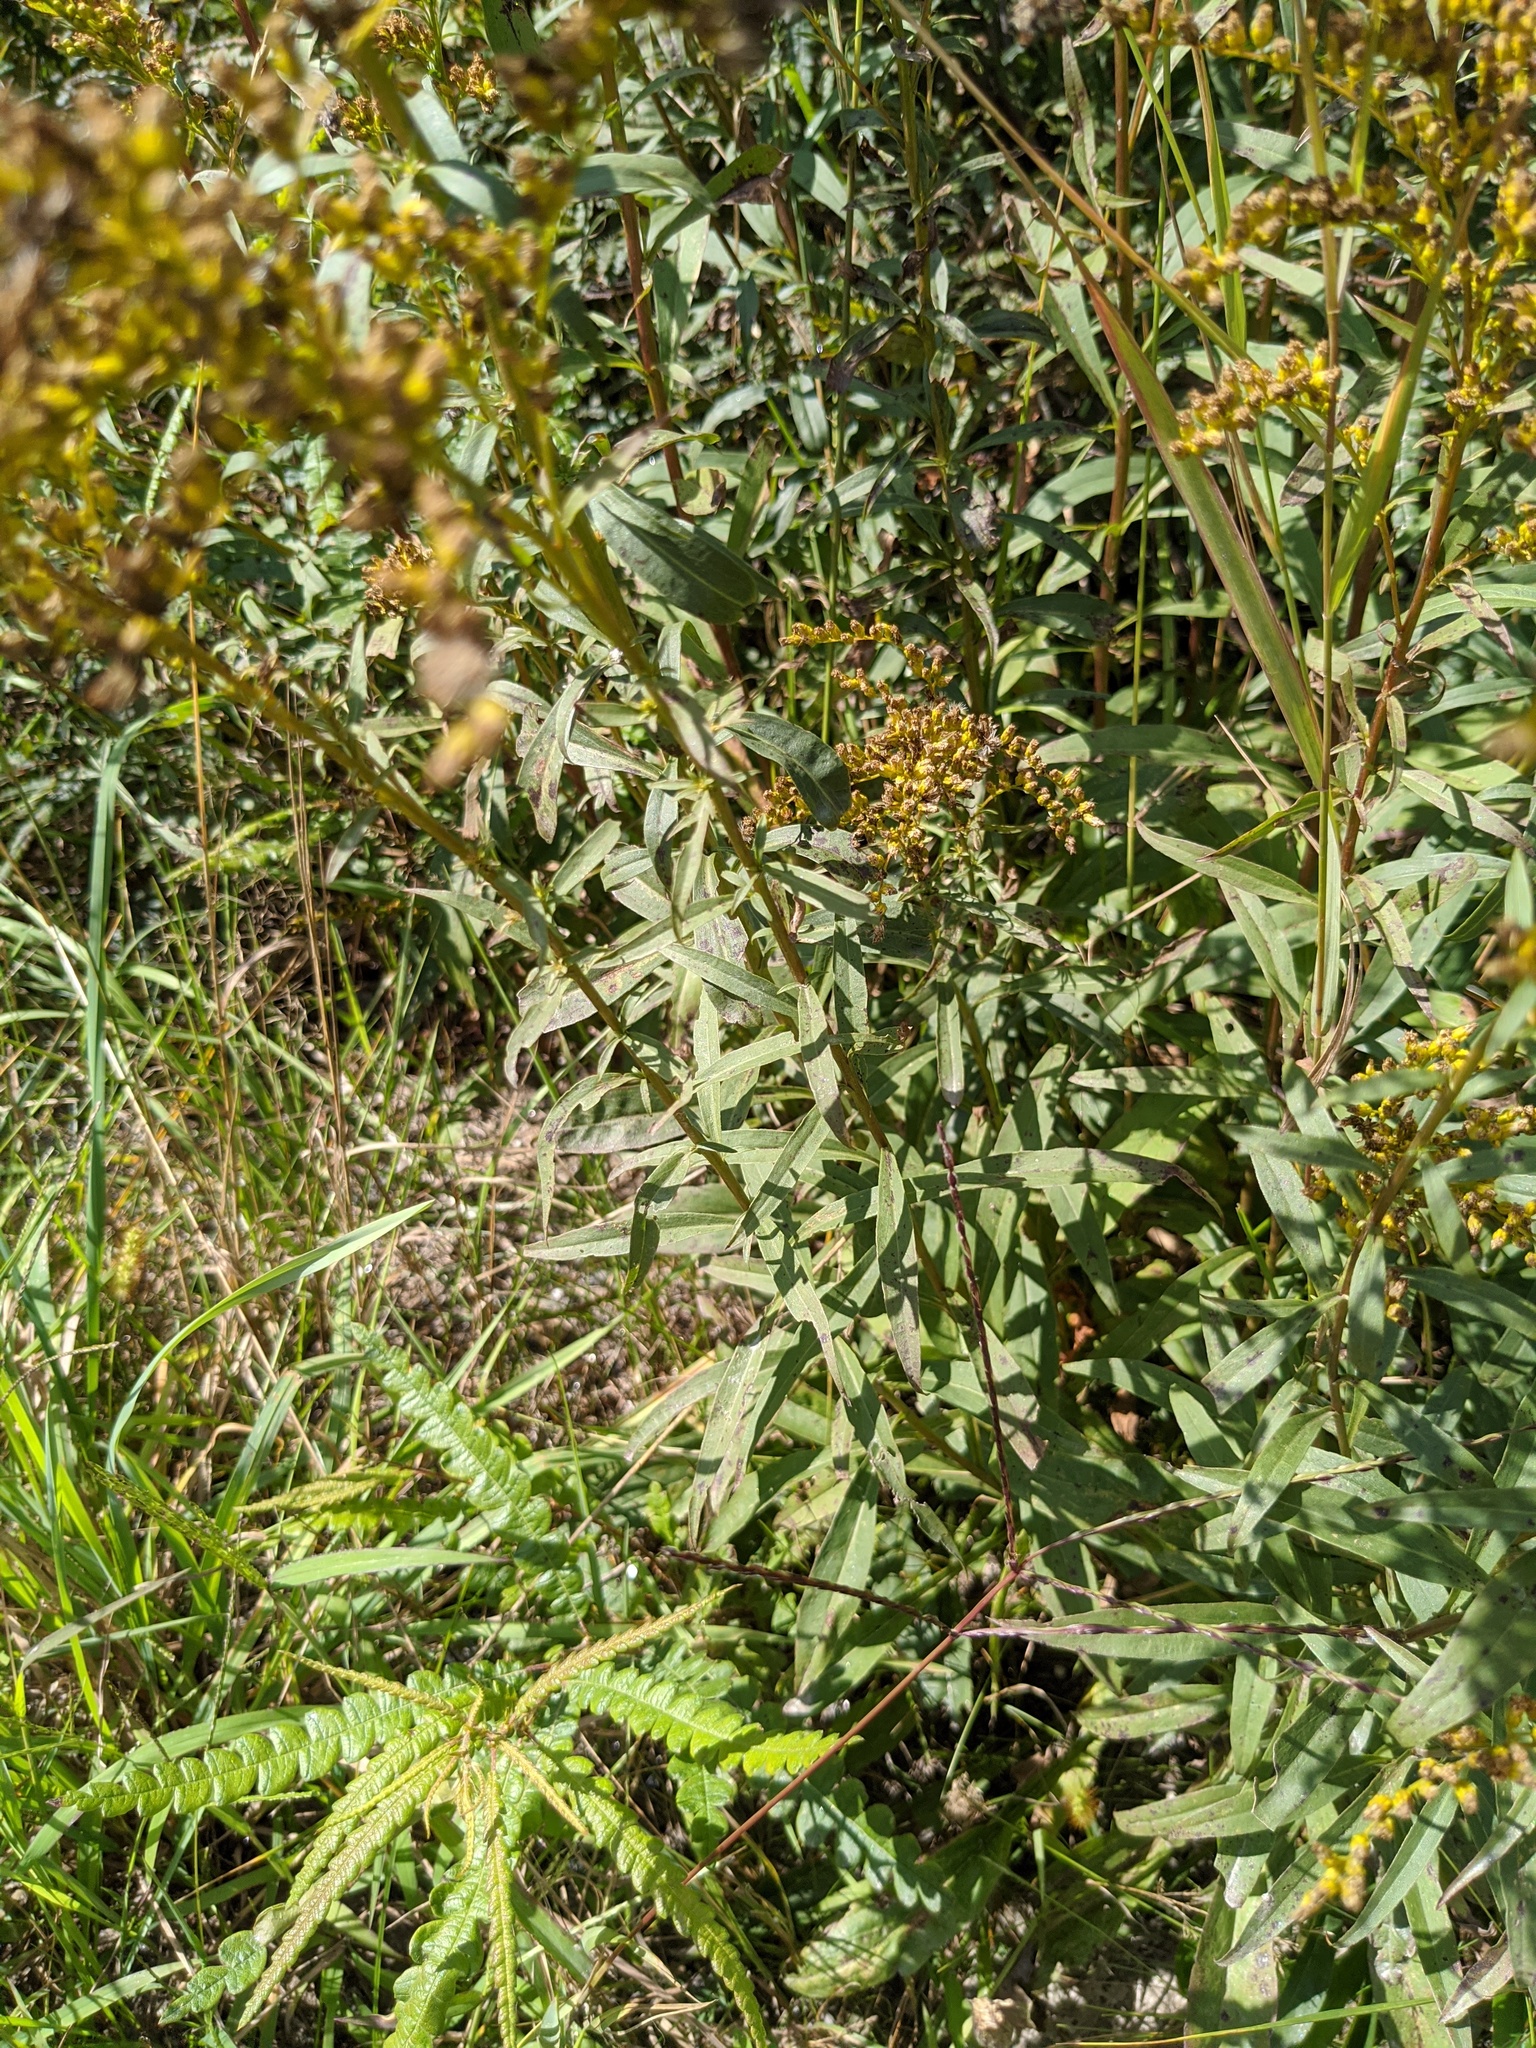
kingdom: Plantae
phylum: Tracheophyta
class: Magnoliopsida
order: Asterales
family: Asteraceae
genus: Solidago
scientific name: Solidago odora
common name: Anise-scented goldenrod
